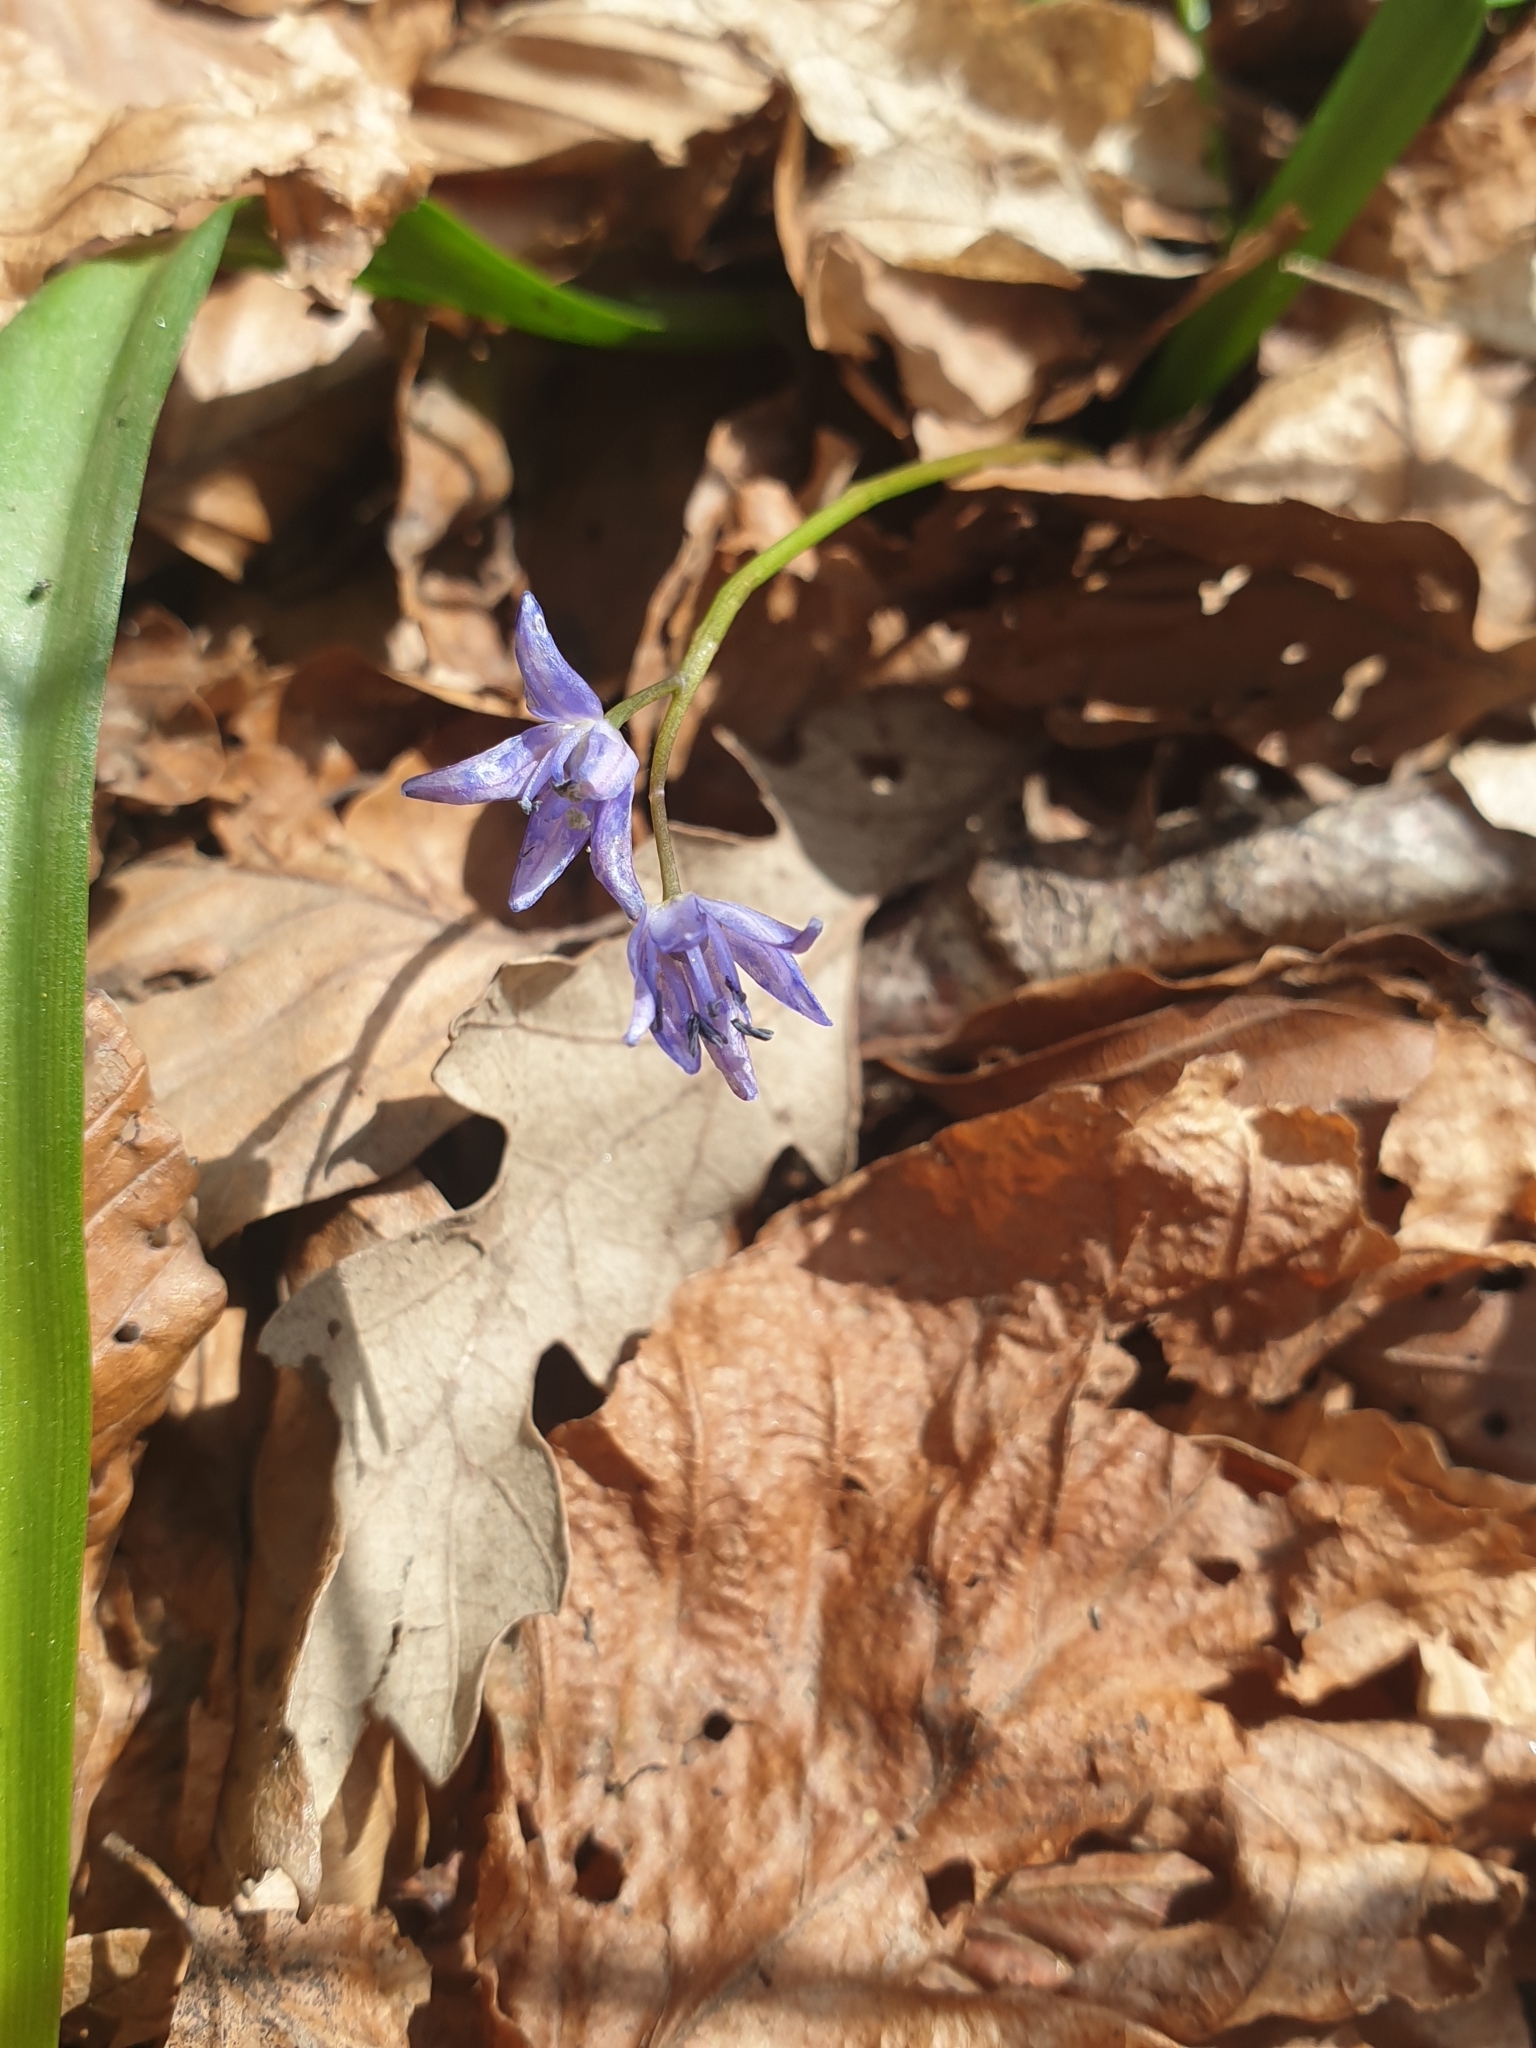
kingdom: Plantae
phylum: Tracheophyta
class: Liliopsida
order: Asparagales
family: Asparagaceae
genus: Scilla
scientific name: Scilla bifolia
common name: Alpine squill
